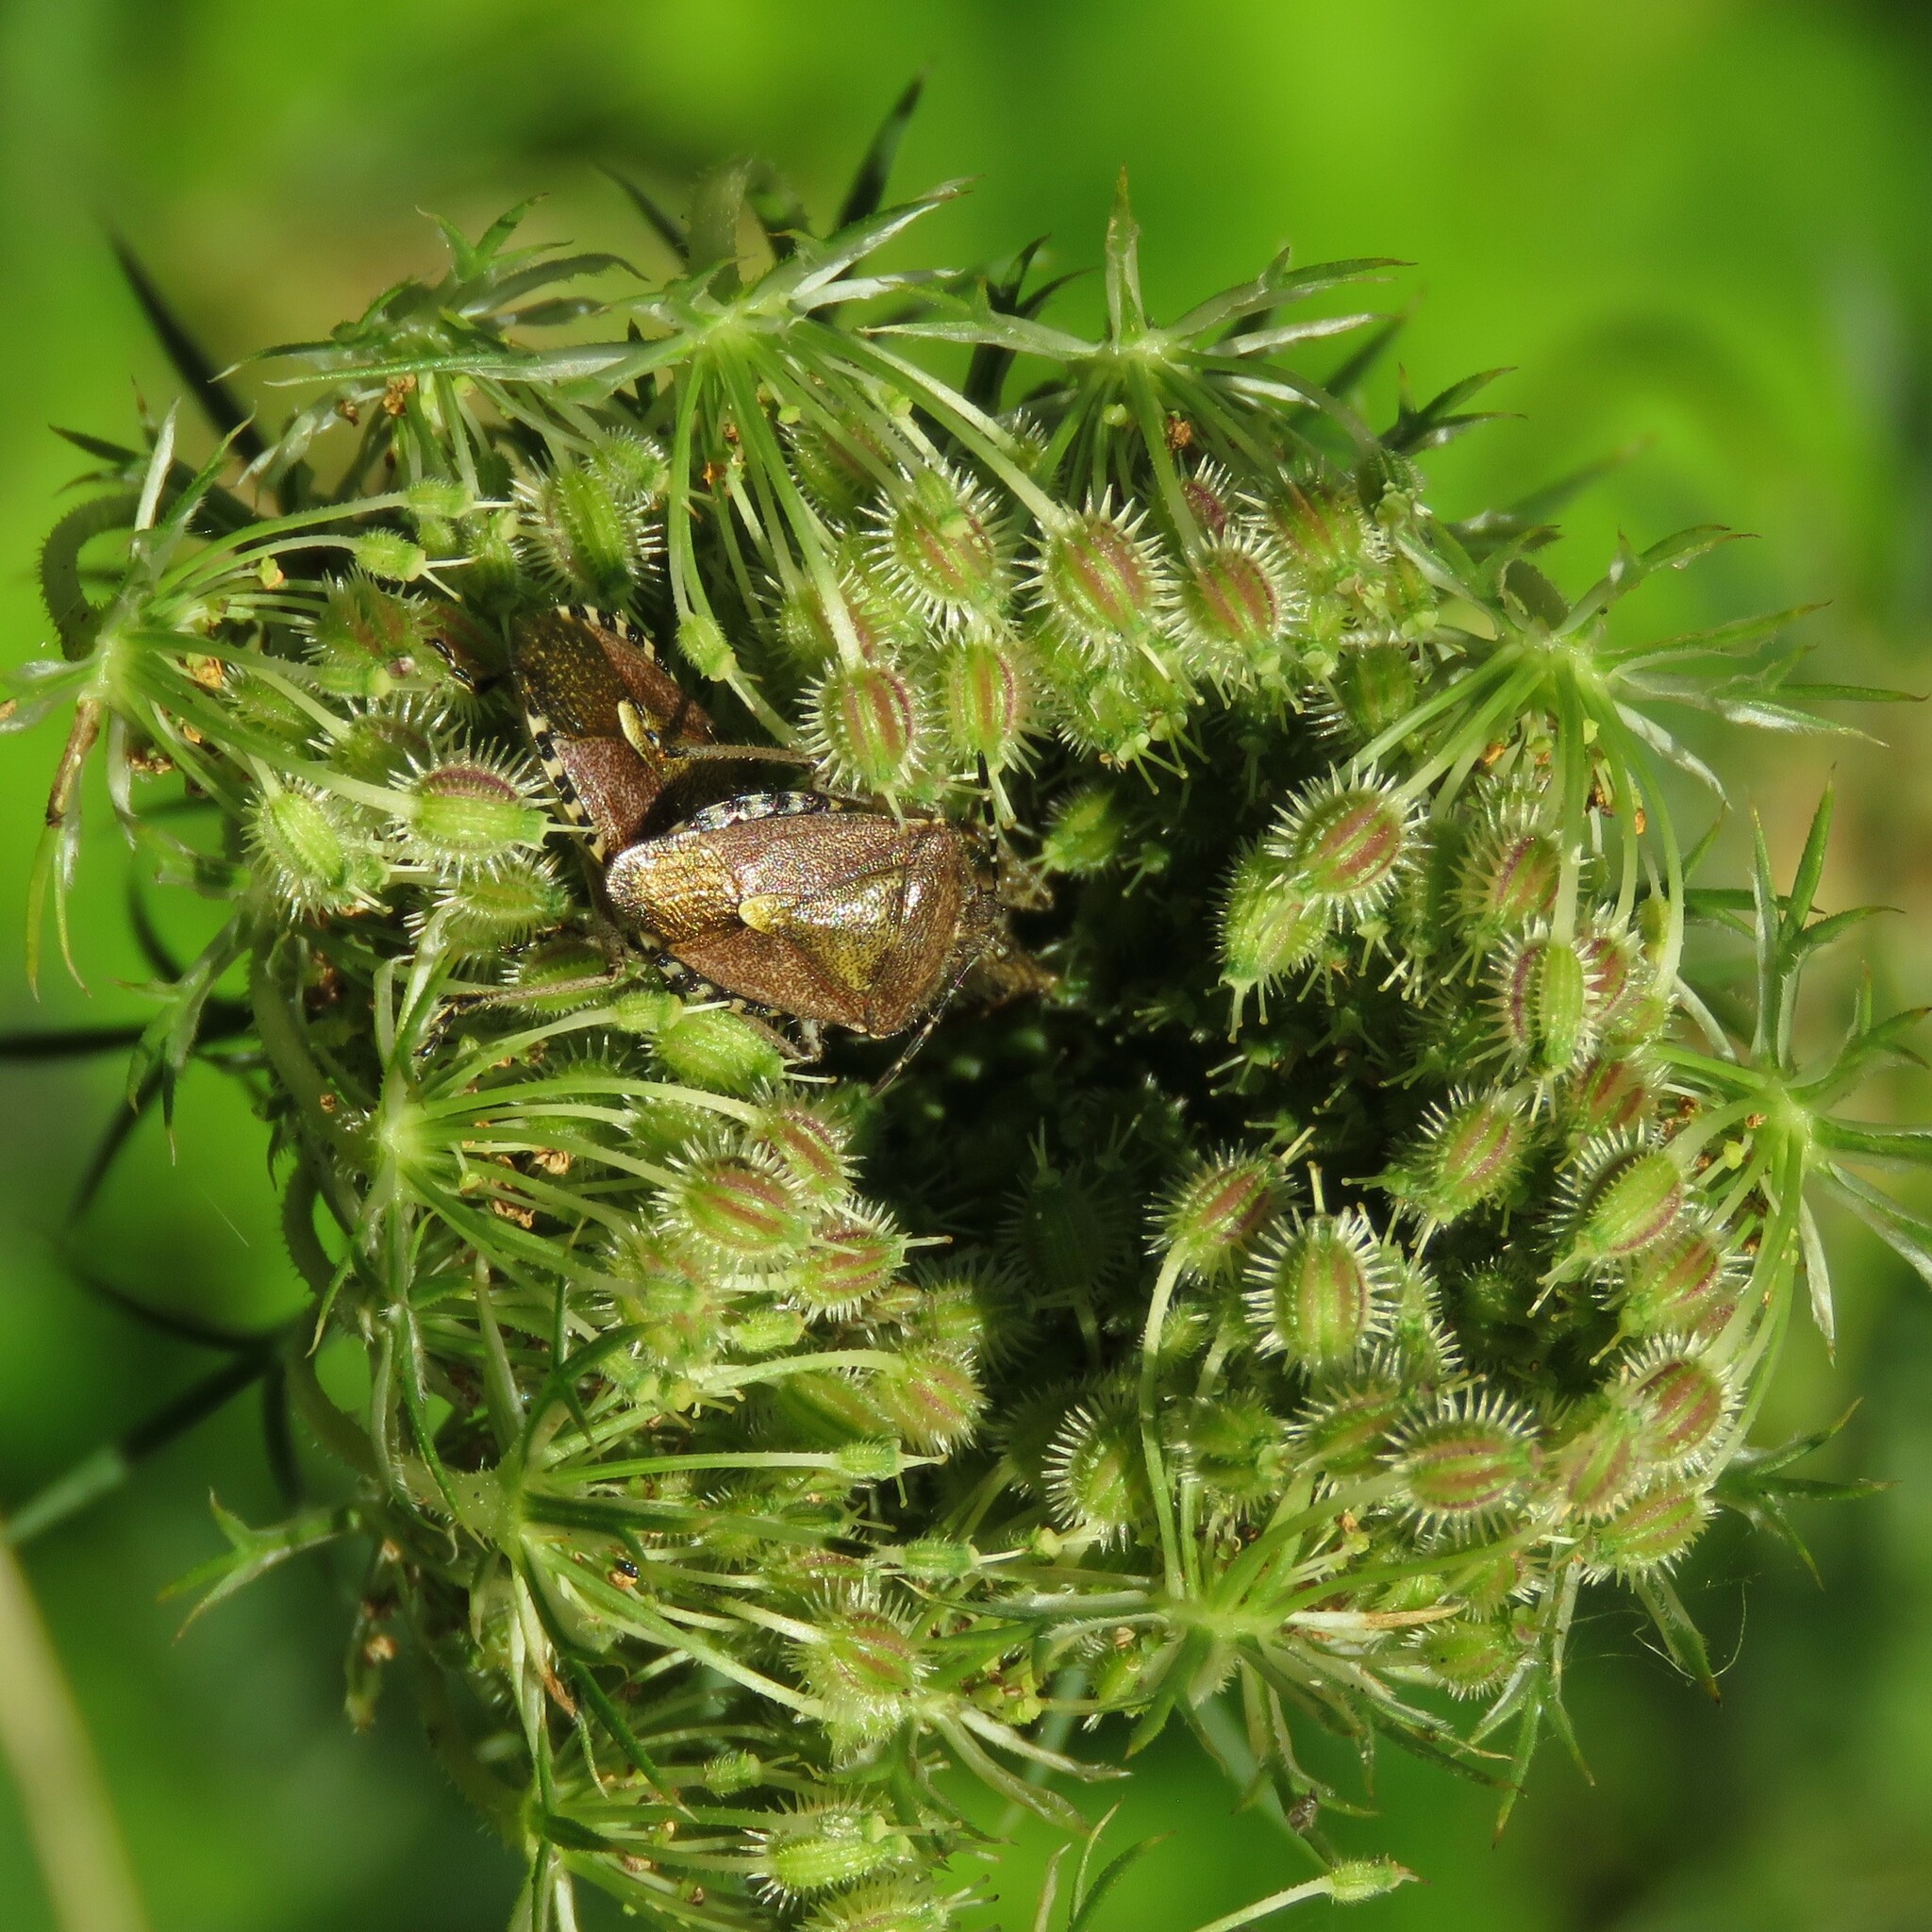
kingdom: Animalia
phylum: Arthropoda
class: Insecta
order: Hemiptera
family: Pentatomidae
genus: Dolycoris
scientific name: Dolycoris baccarum
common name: Sloe bug
